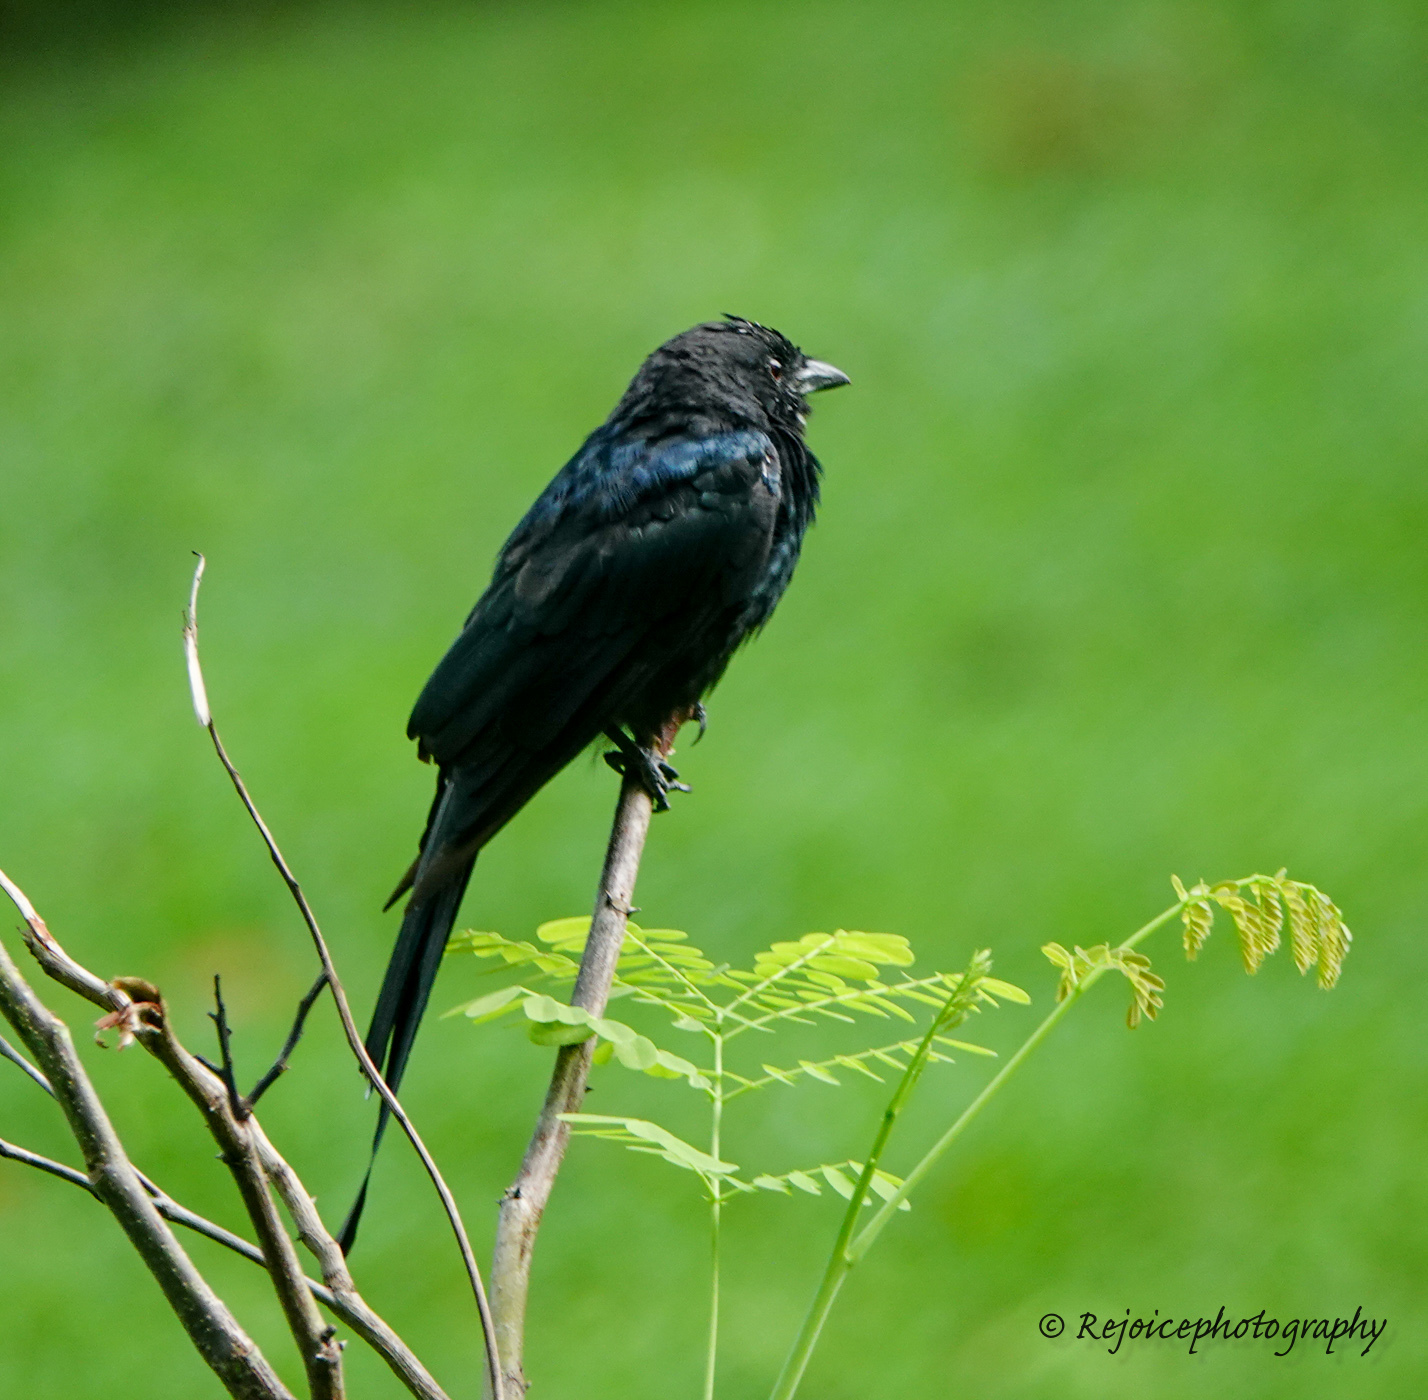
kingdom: Animalia
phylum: Chordata
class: Aves
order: Passeriformes
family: Dicruridae
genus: Dicrurus
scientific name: Dicrurus macrocercus
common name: Black drongo
